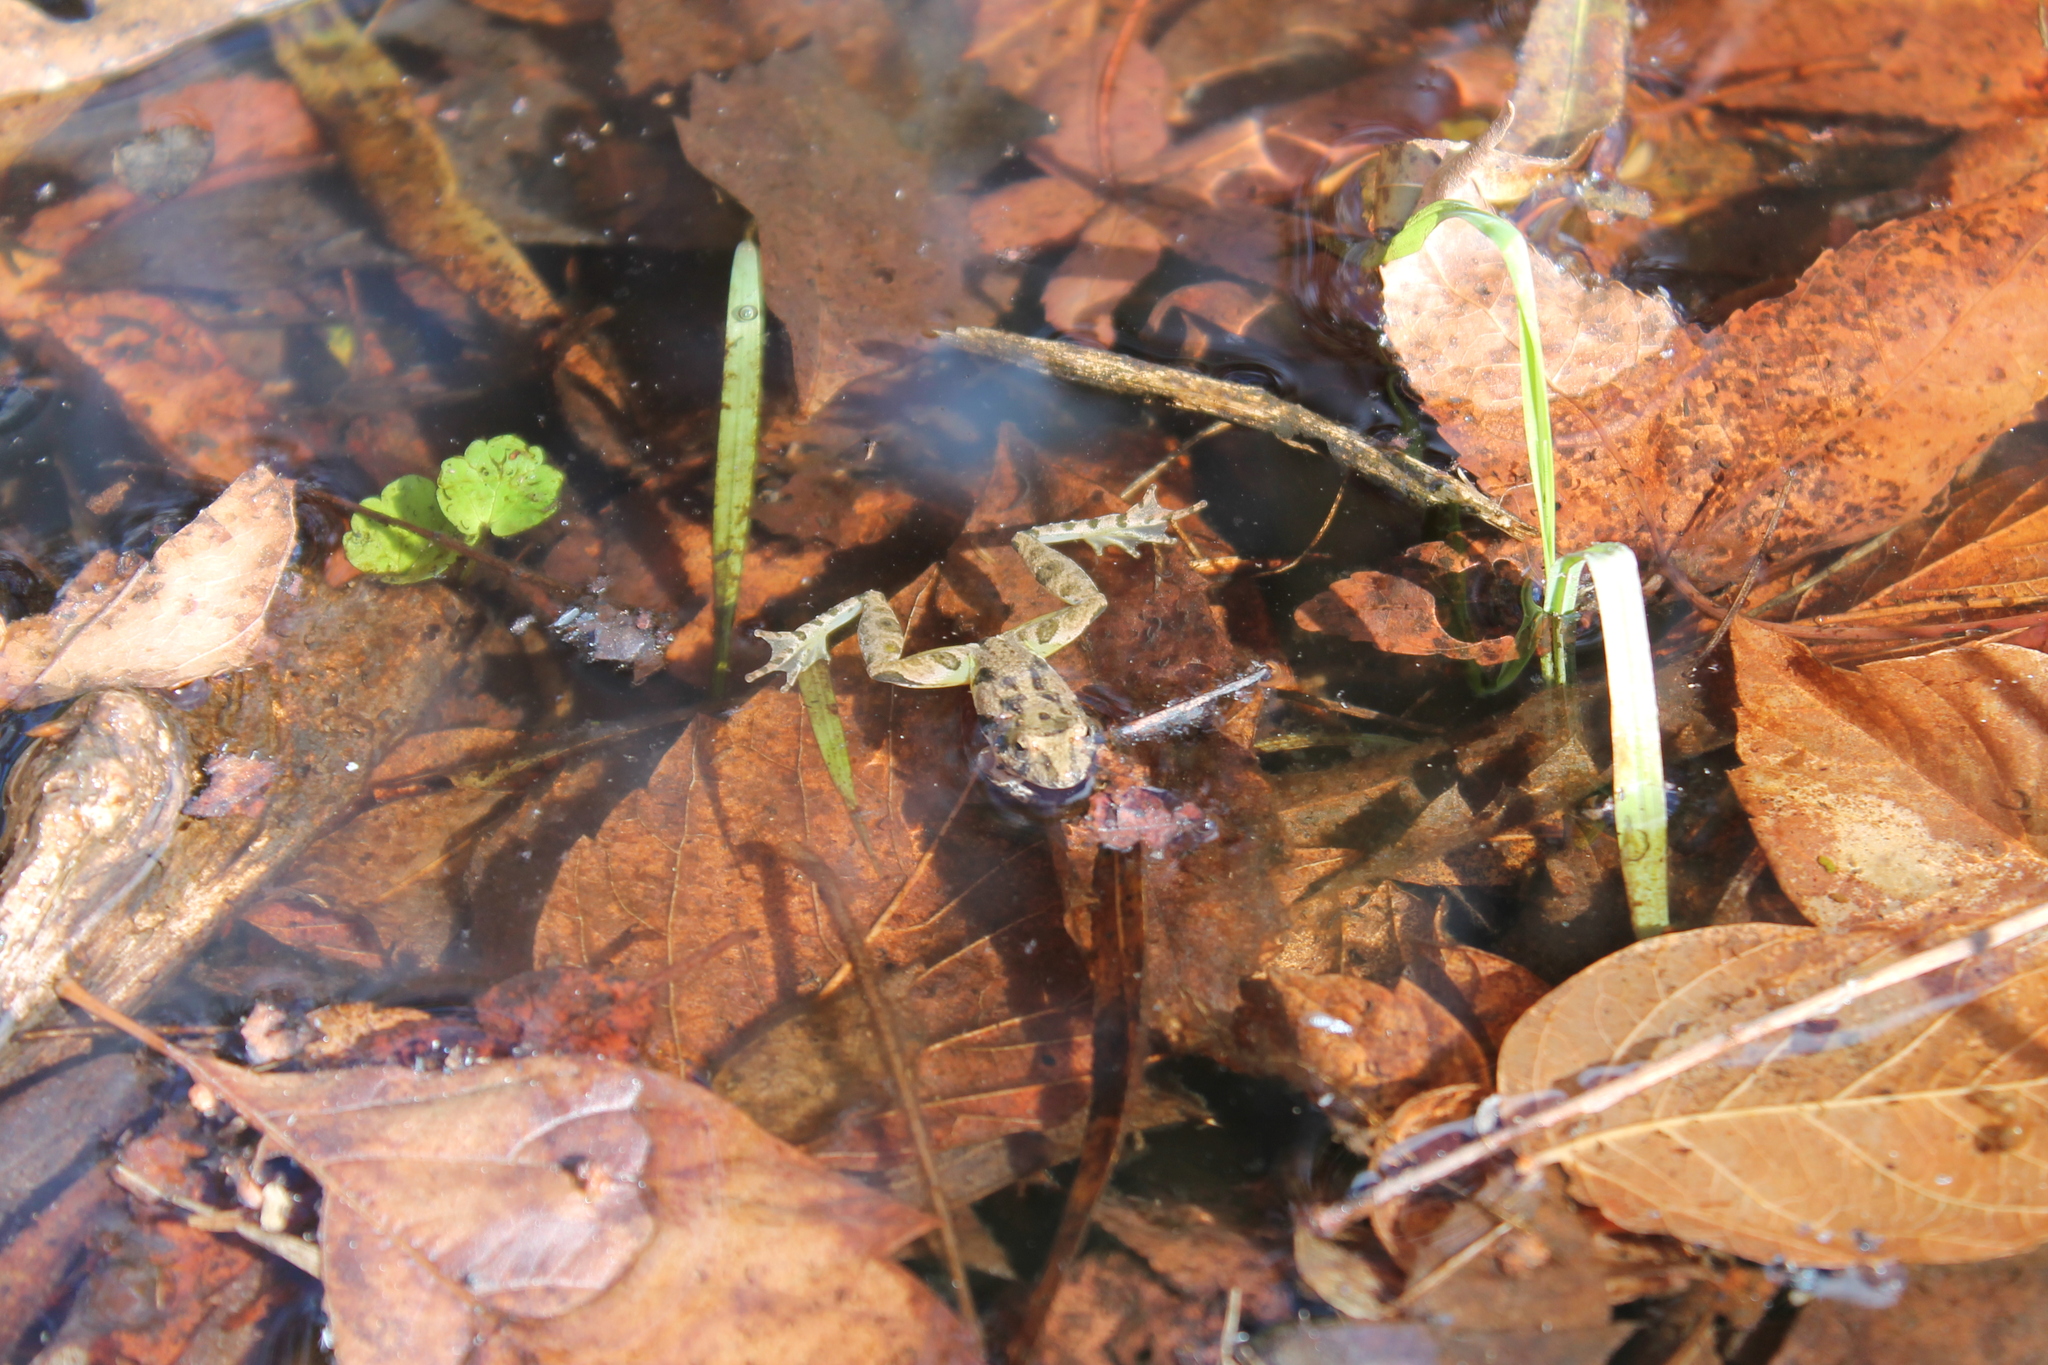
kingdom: Animalia
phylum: Chordata
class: Amphibia
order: Anura
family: Hylidae
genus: Acris
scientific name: Acris crepitans
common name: Northern cricket frog
